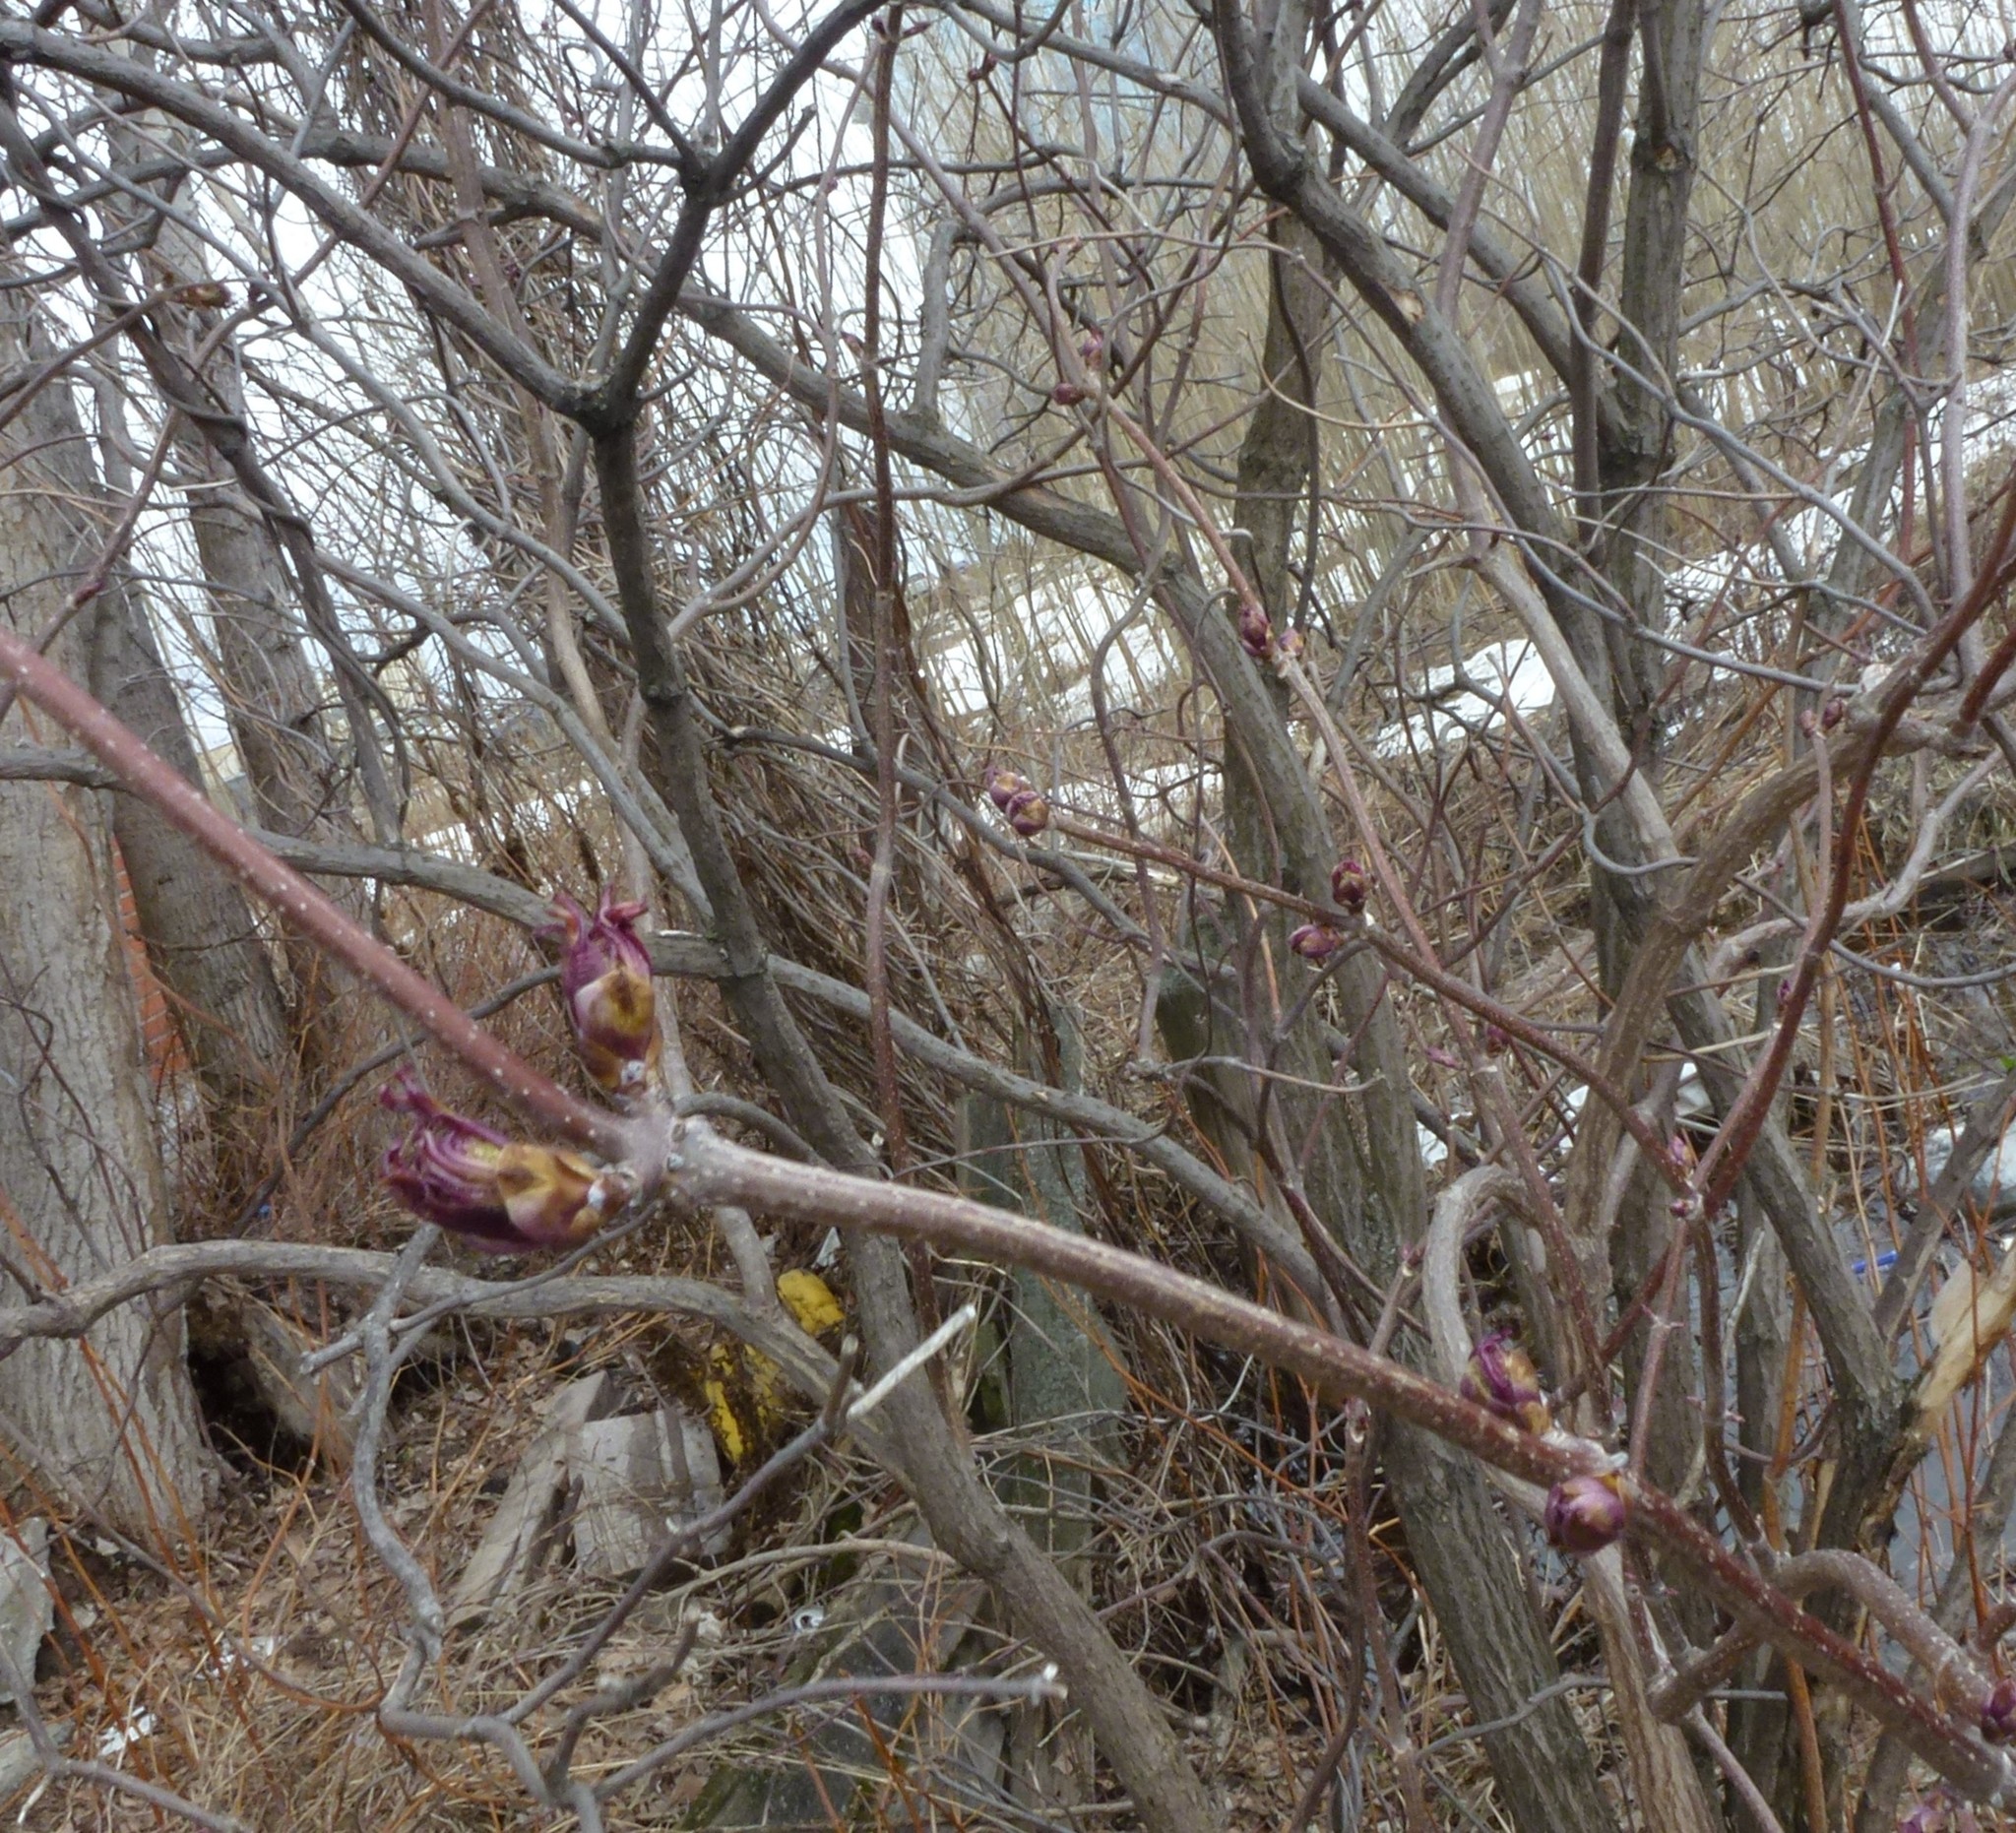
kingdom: Plantae
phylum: Tracheophyta
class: Magnoliopsida
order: Dipsacales
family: Viburnaceae
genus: Sambucus
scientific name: Sambucus sibirica
